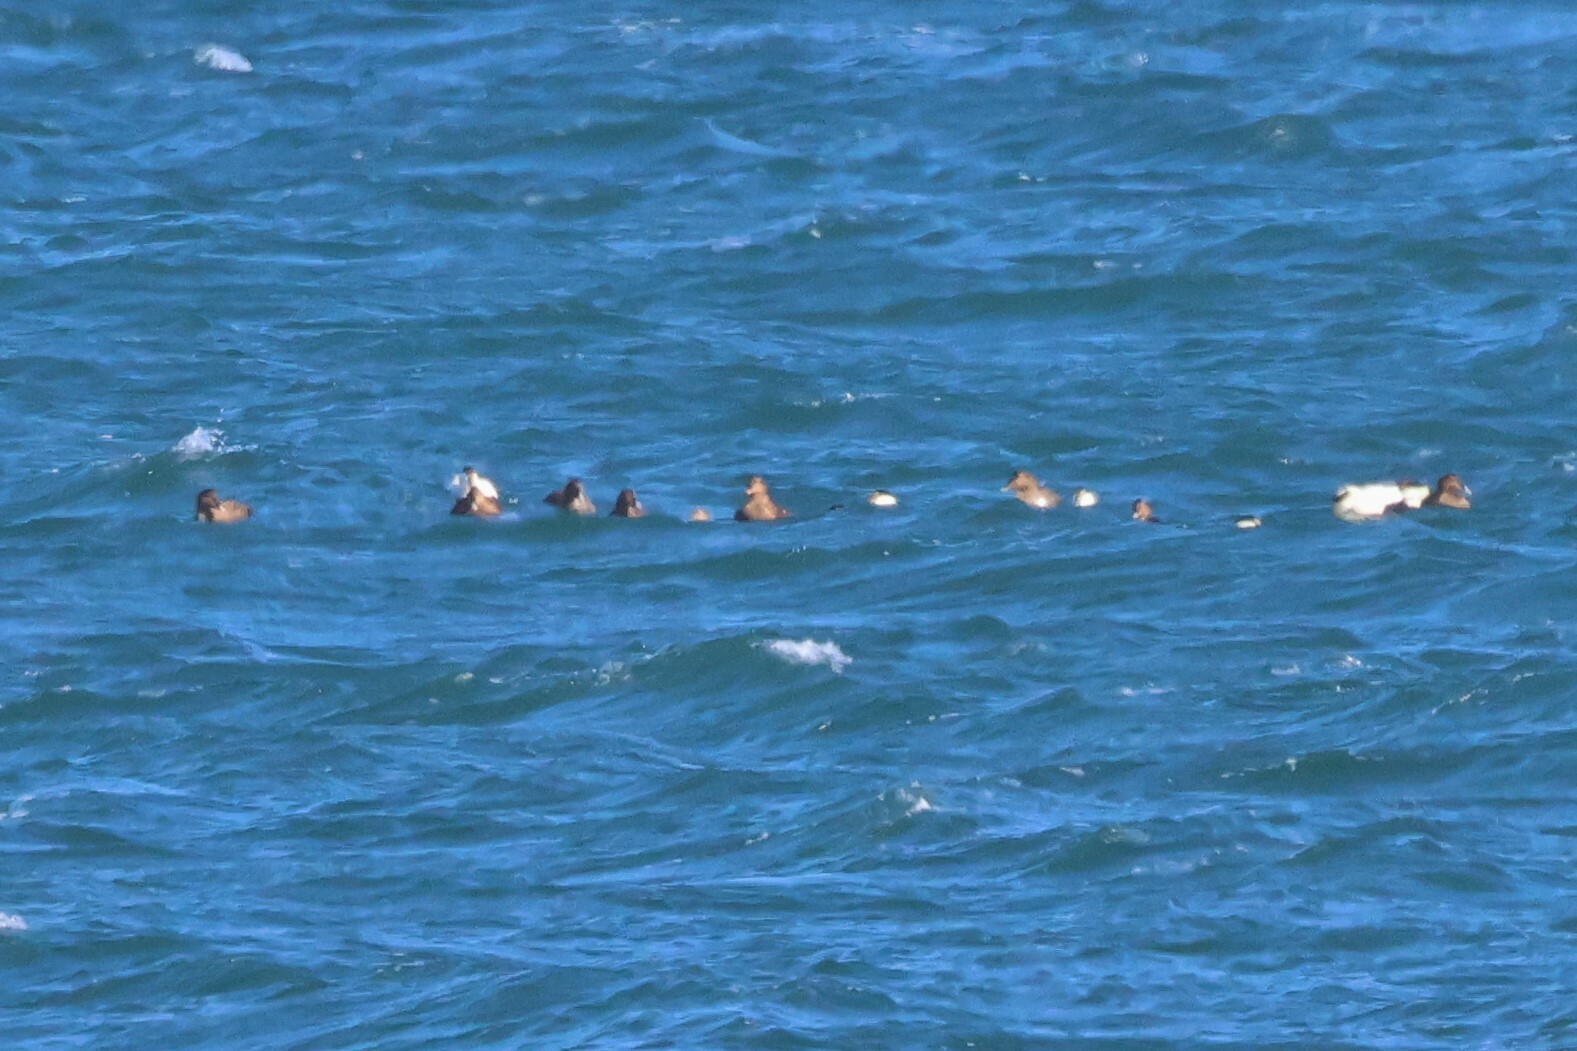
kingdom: Animalia
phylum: Chordata
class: Aves
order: Anseriformes
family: Anatidae
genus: Somateria
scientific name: Somateria mollissima
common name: Common eider
